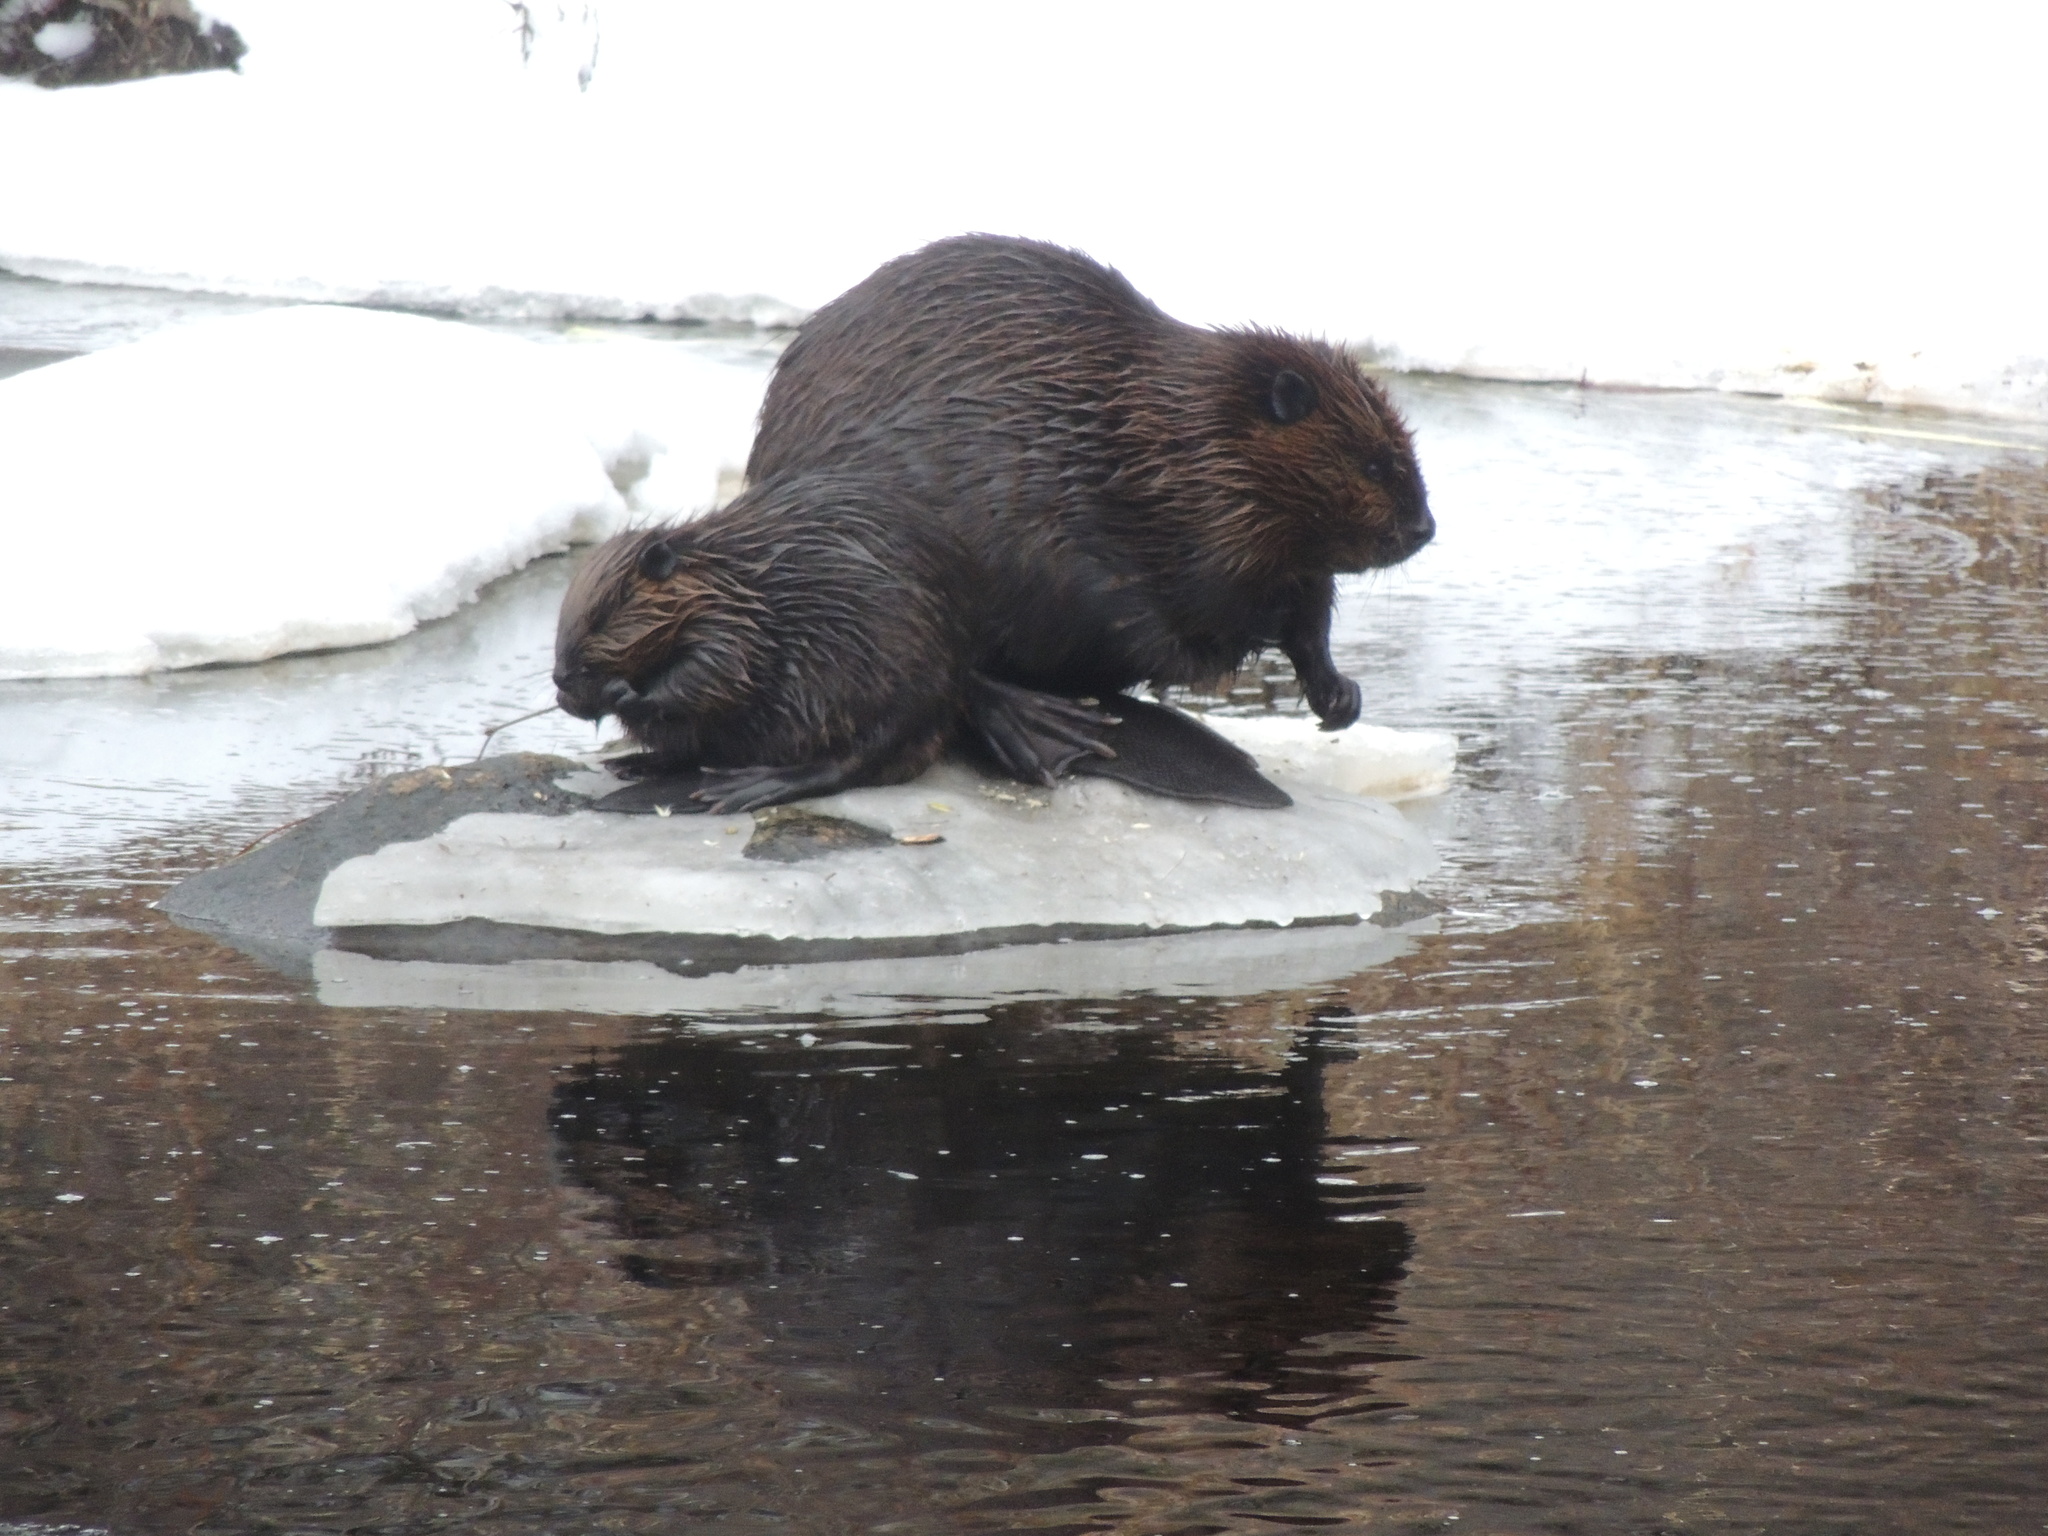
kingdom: Animalia
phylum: Chordata
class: Mammalia
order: Rodentia
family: Castoridae
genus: Castor
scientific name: Castor canadensis
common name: American beaver
